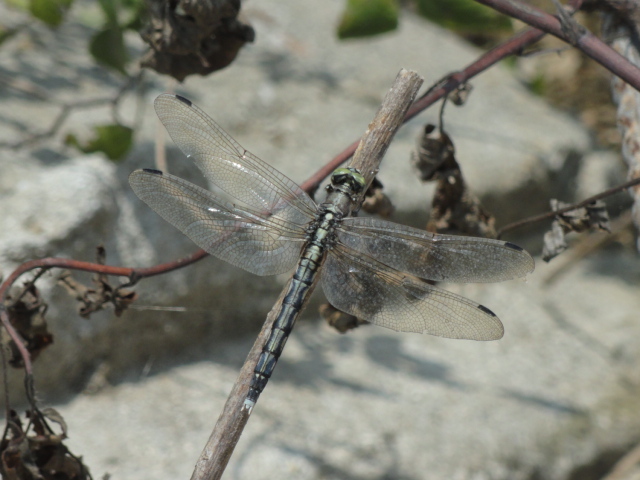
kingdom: Animalia
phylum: Arthropoda
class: Insecta
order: Odonata
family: Libellulidae
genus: Orthetrum
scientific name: Orthetrum albistylum
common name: White-tailed skimmer
